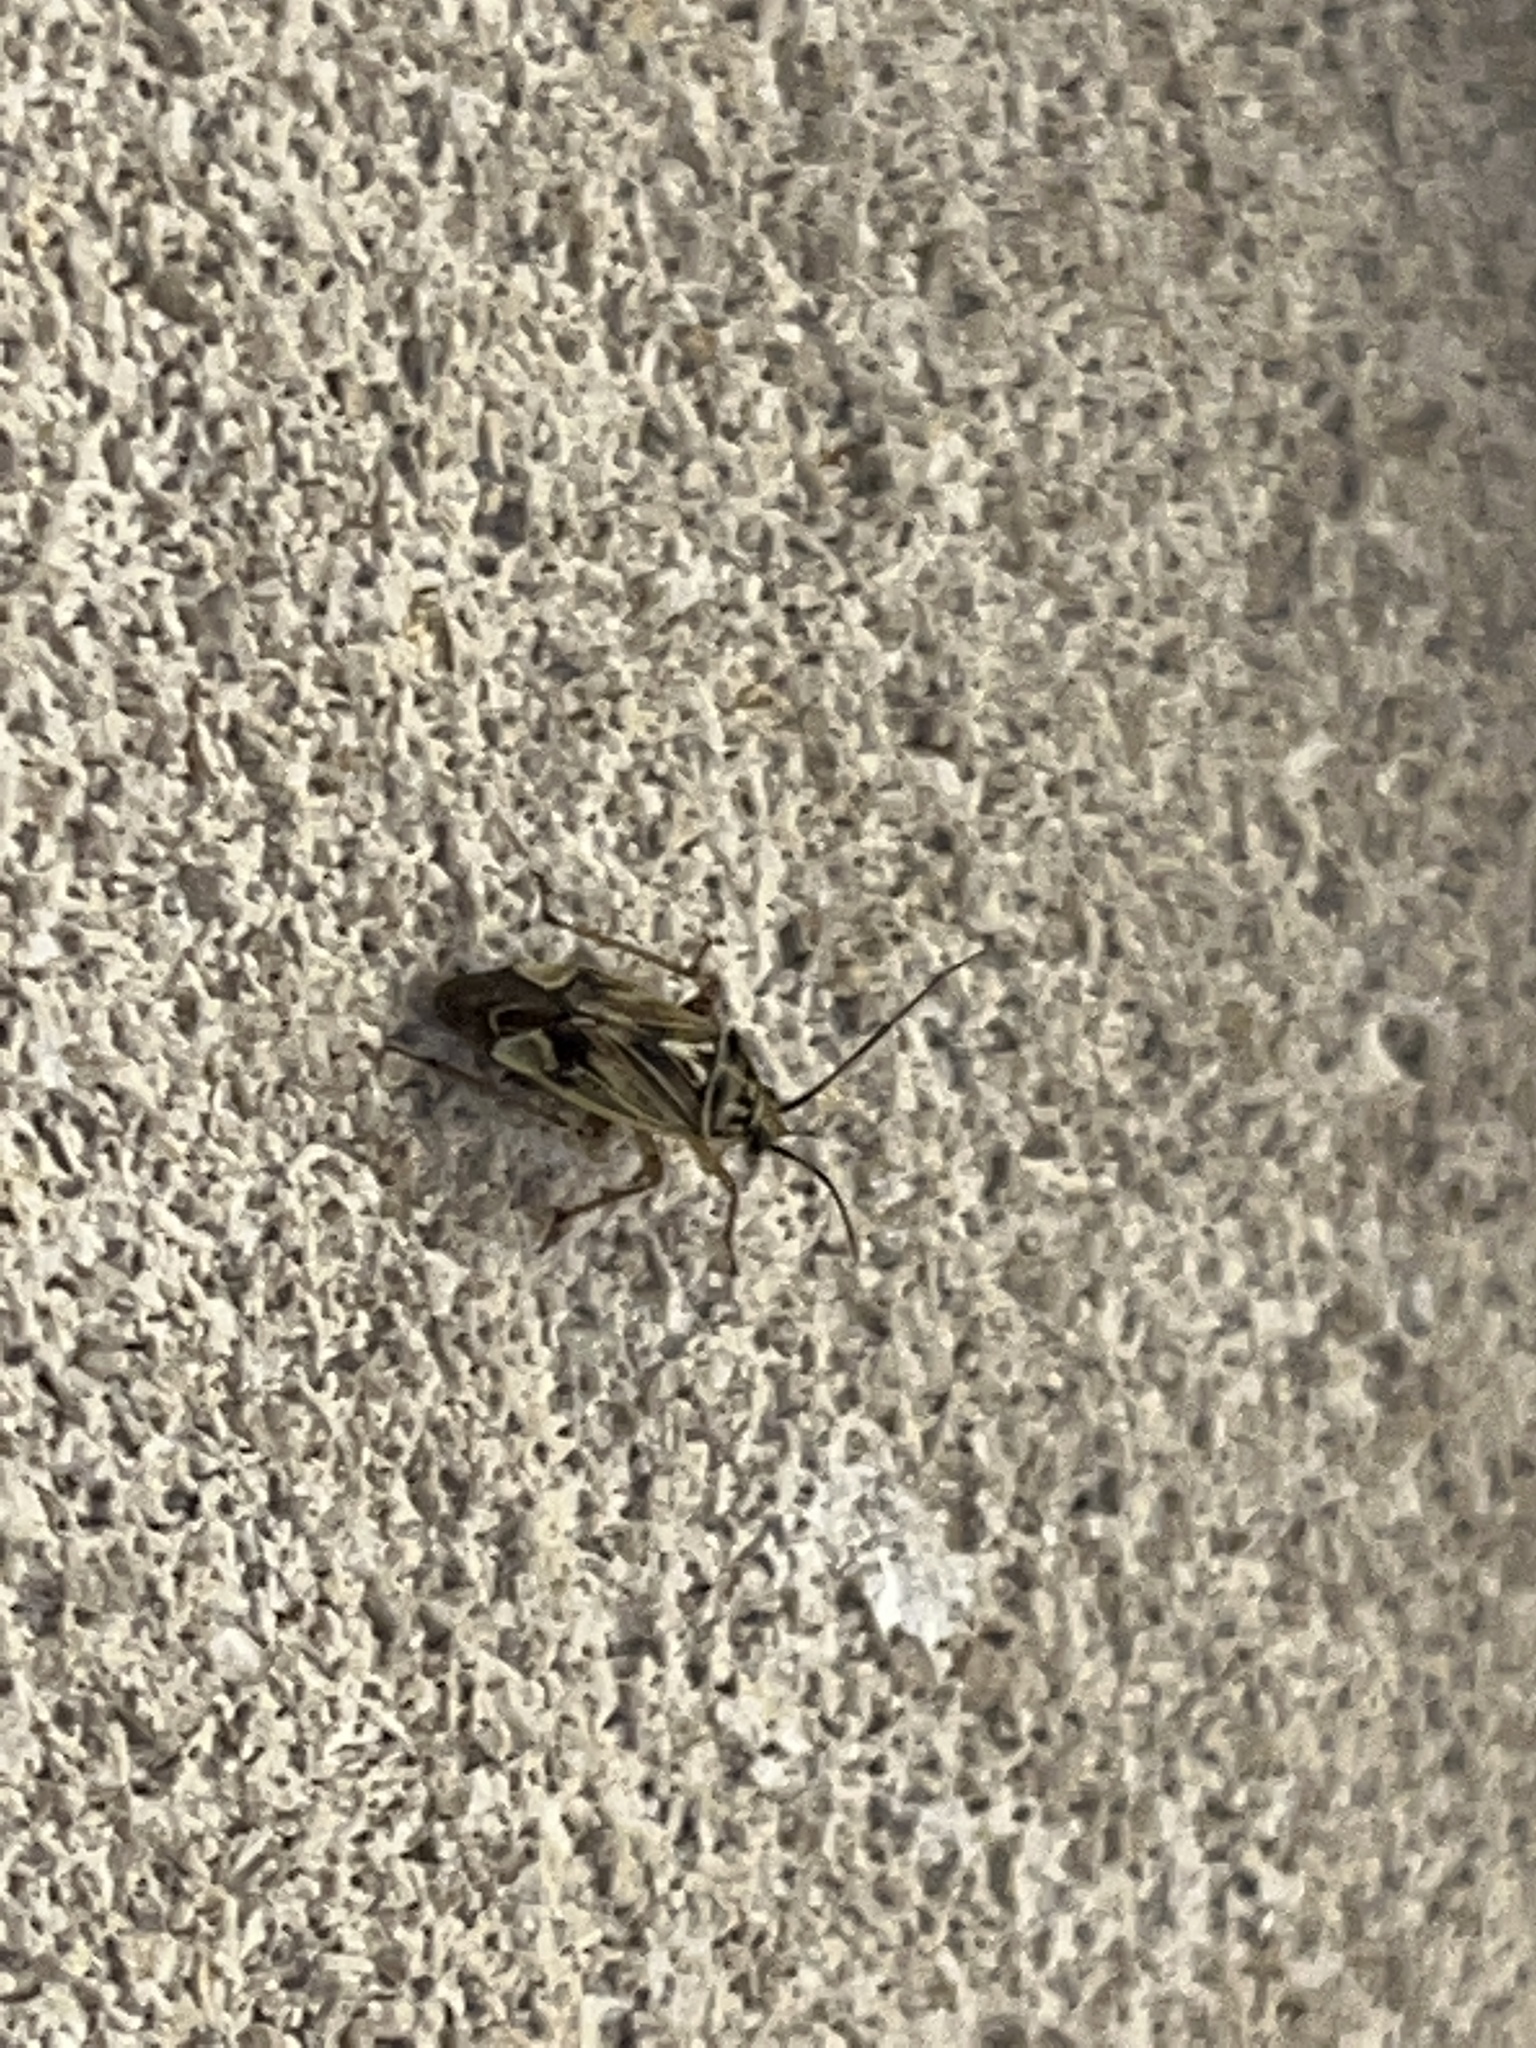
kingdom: Animalia
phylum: Arthropoda
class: Insecta
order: Hemiptera
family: Miridae
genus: Lygus
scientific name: Lygus lineolaris
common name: North american tarnished plant bug
